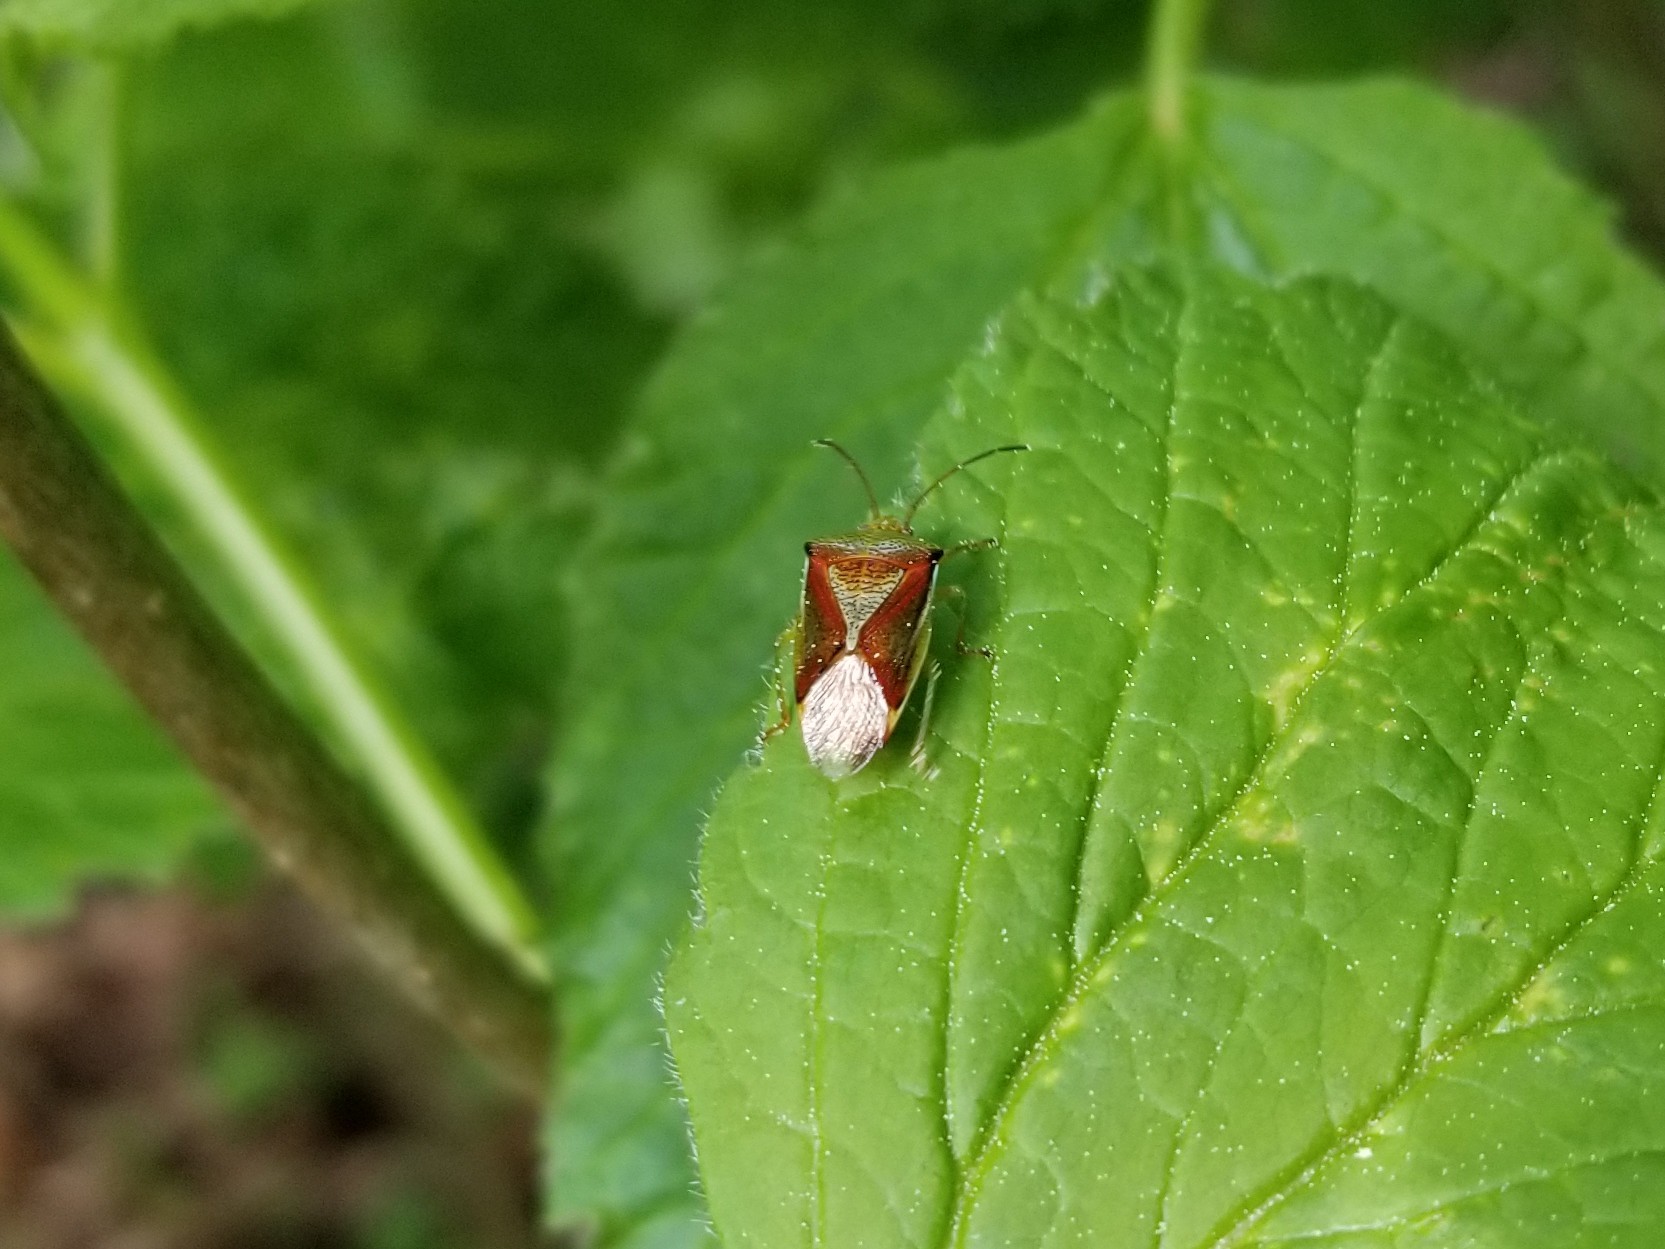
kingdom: Animalia
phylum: Arthropoda
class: Insecta
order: Hemiptera
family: Acanthosomatidae
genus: Elasmostethus
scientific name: Elasmostethus interstinctus
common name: Birch shieldbug
